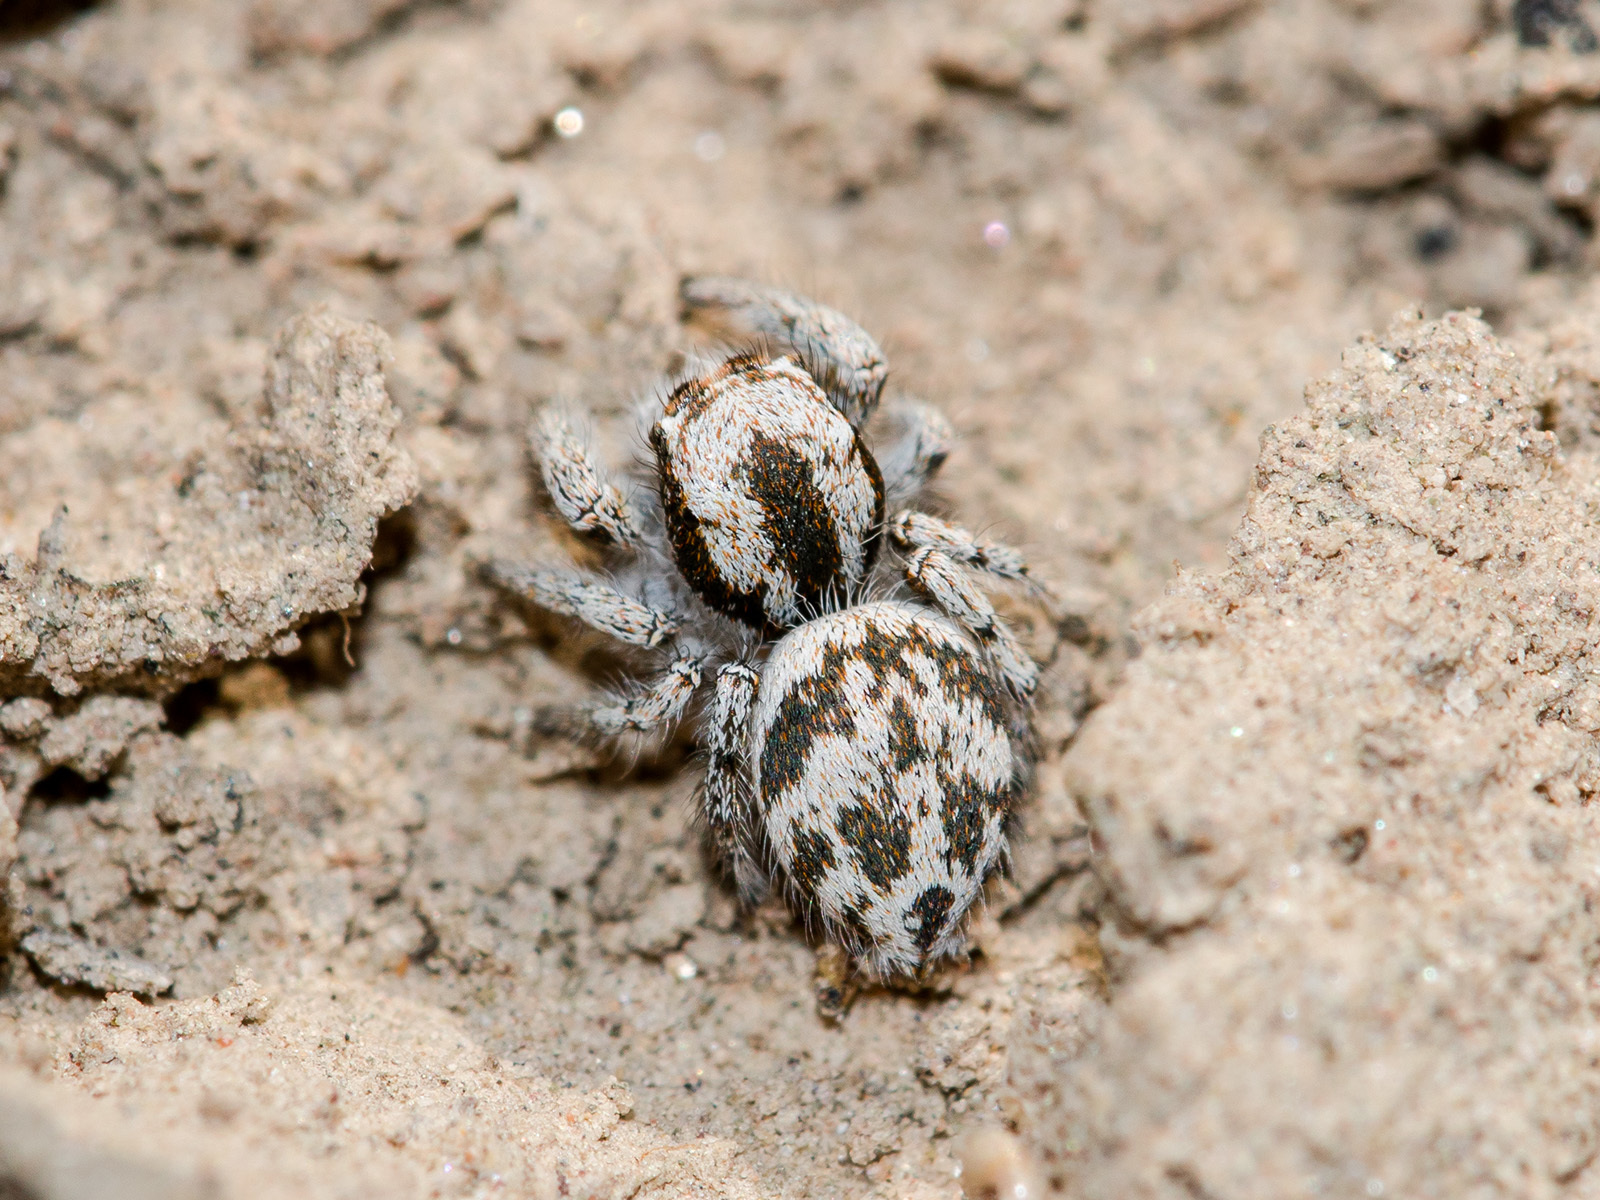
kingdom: Animalia
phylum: Arthropoda
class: Arachnida
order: Araneae
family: Salticidae
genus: Pseudomogrus
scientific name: Pseudomogrus dalaensis
